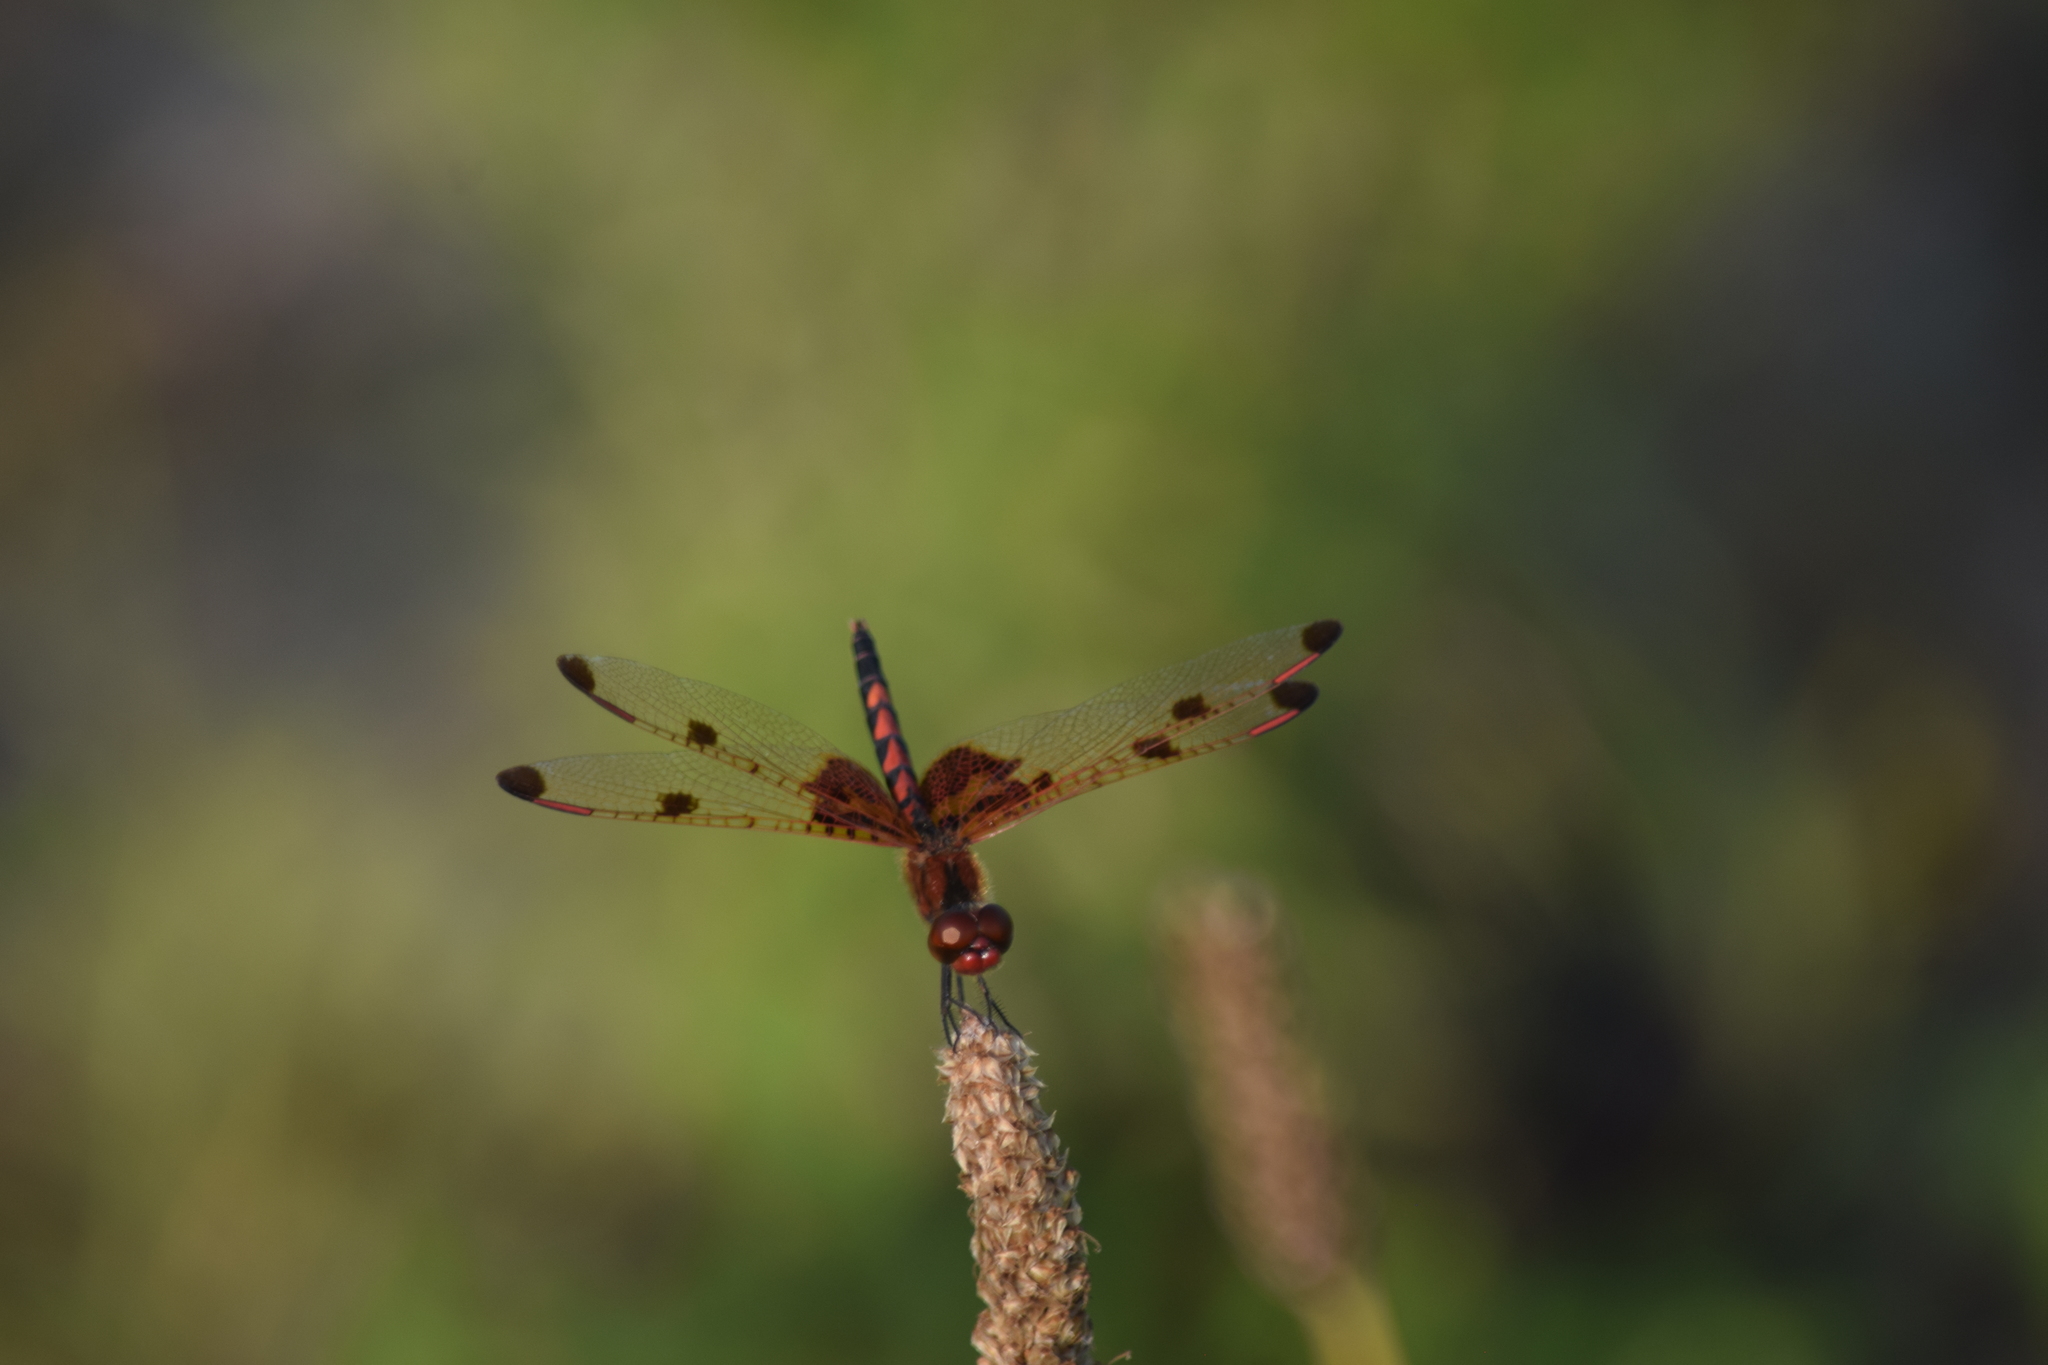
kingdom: Animalia
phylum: Arthropoda
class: Insecta
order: Odonata
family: Libellulidae
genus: Celithemis
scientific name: Celithemis elisa
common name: Calico pennant
